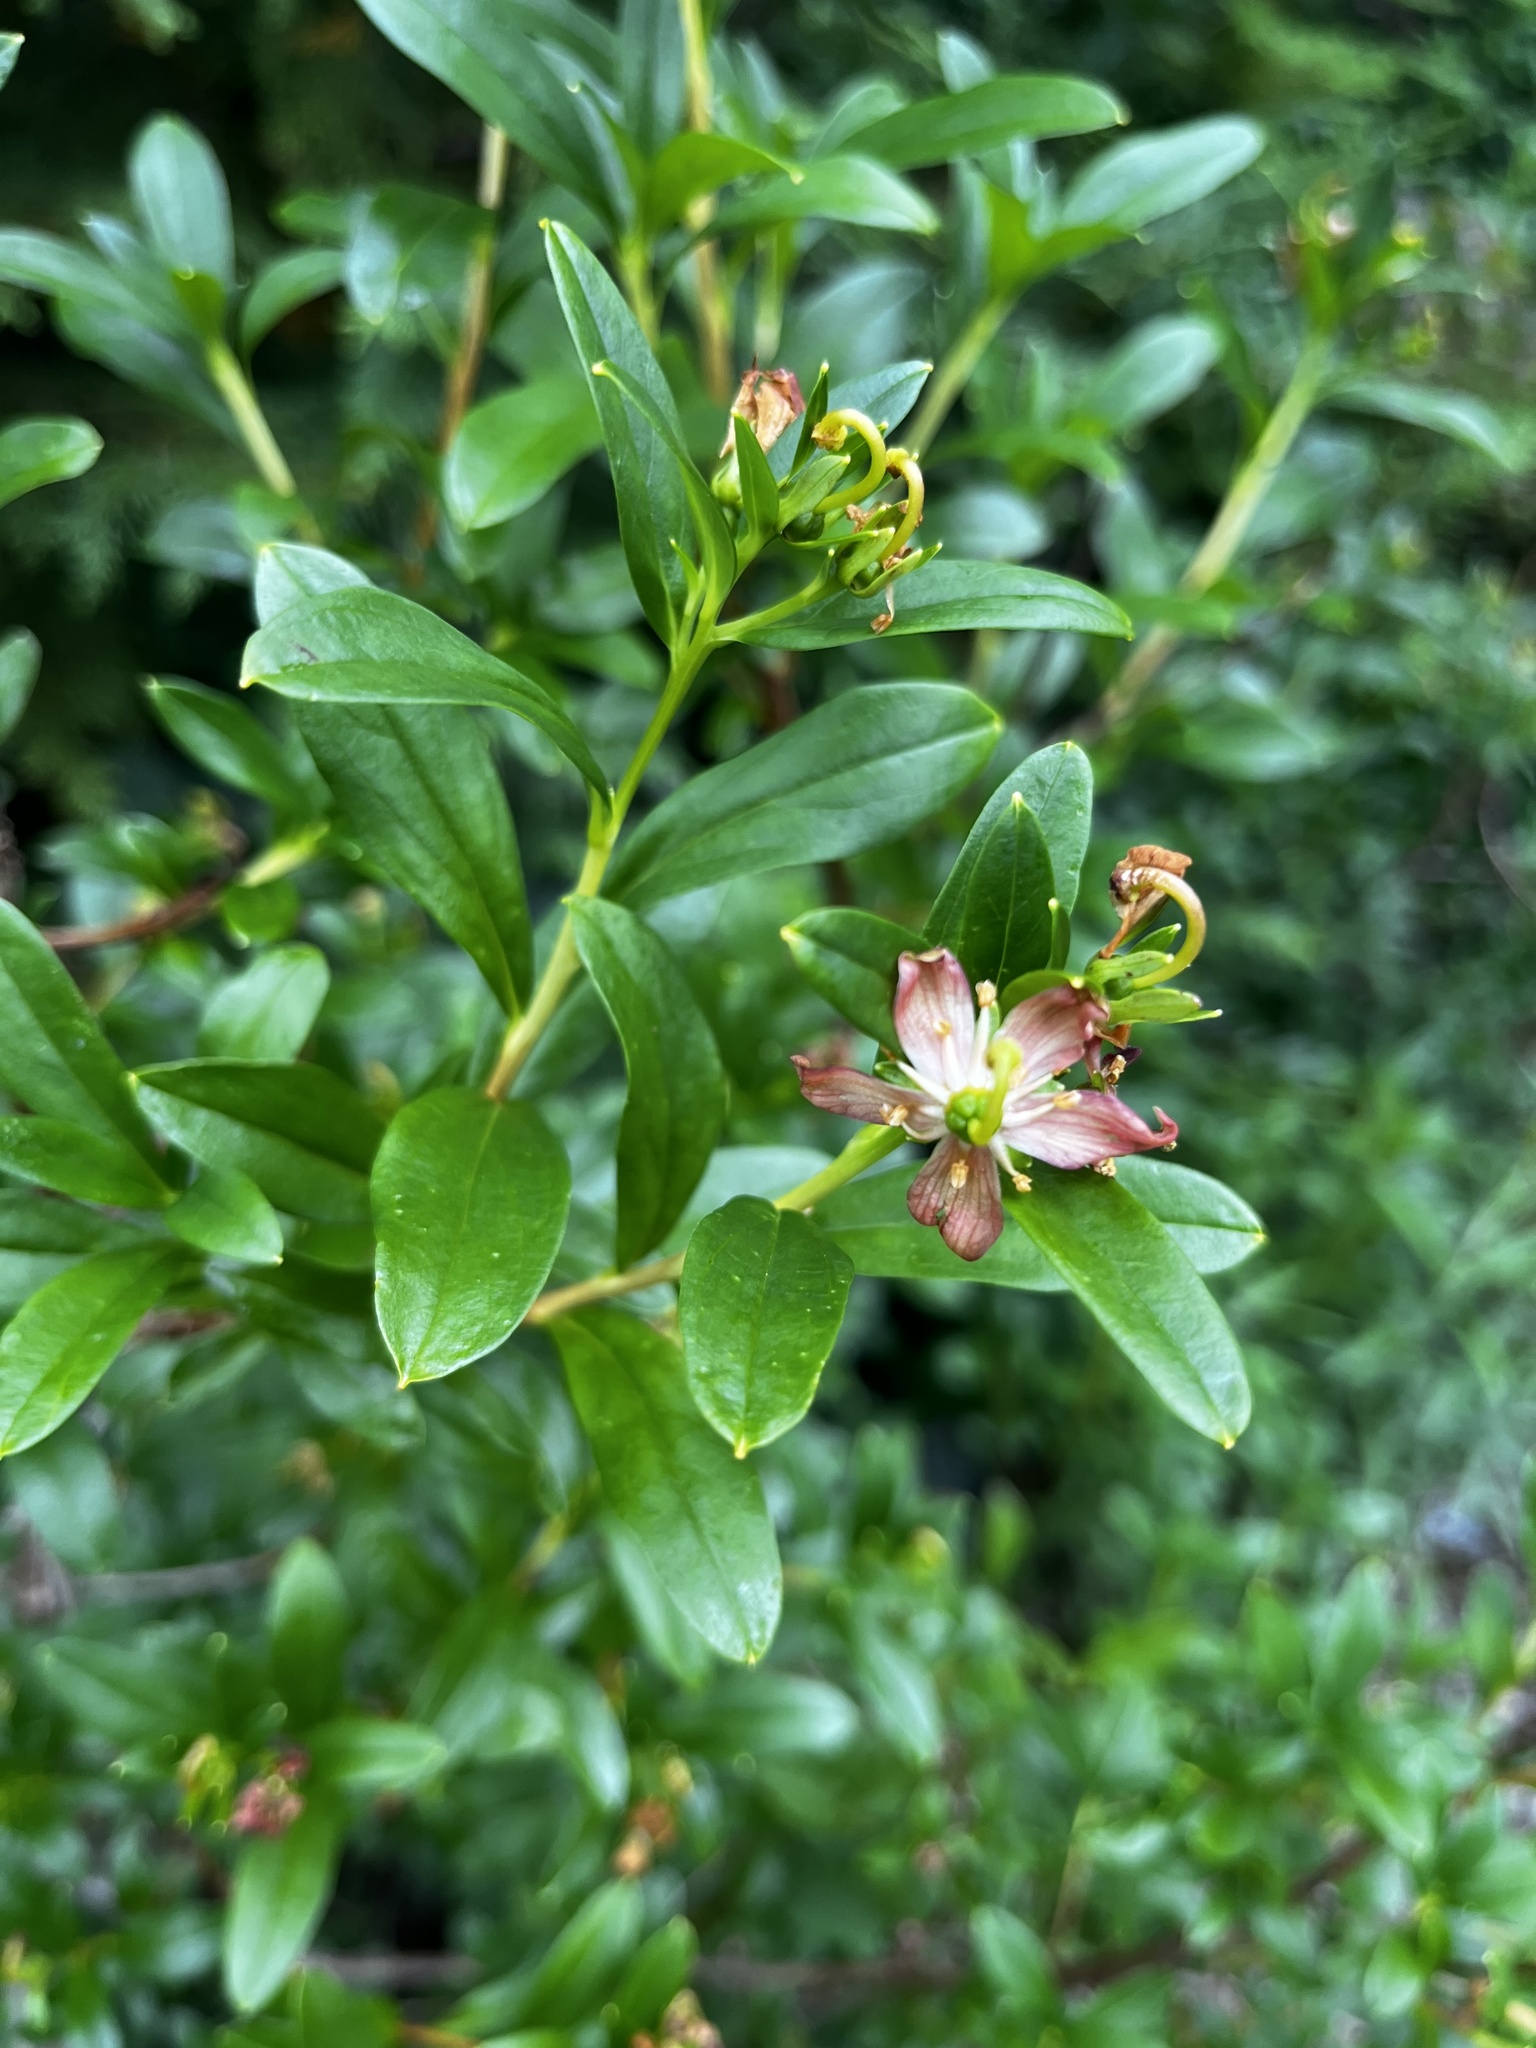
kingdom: Plantae
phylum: Tracheophyta
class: Magnoliopsida
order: Ericales
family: Ericaceae
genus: Elliottia
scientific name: Elliottia pyroliflora
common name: Copperbush
